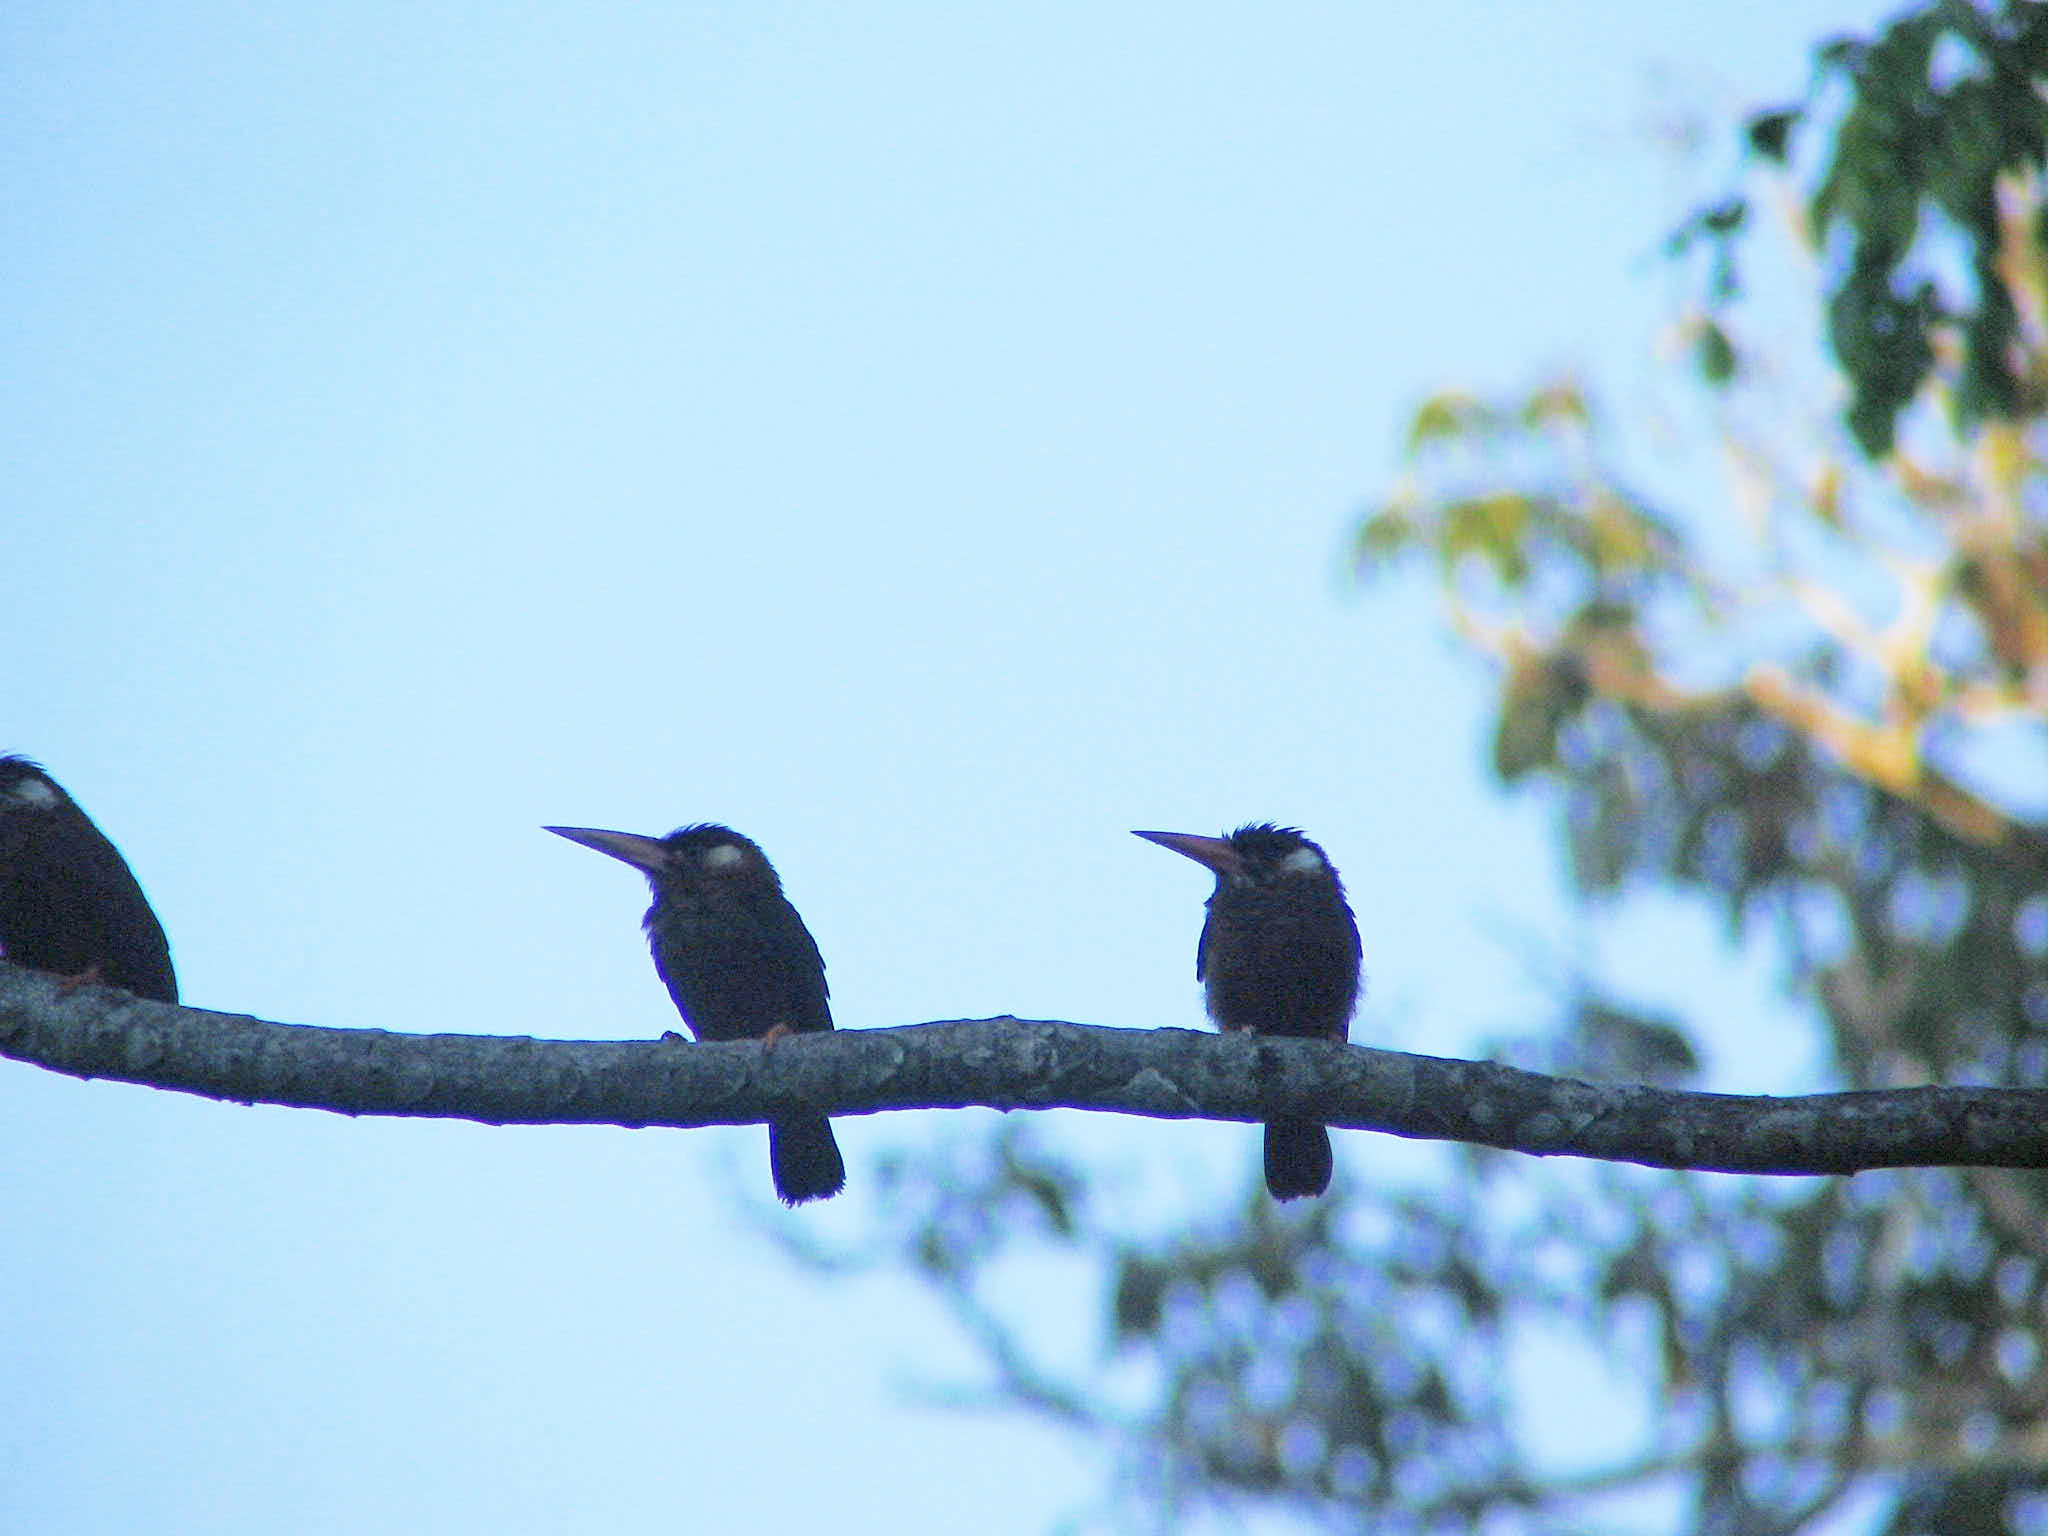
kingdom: Animalia
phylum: Chordata
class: Aves
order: Piciformes
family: Galbulidae
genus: Galbalcyrhynchus
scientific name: Galbalcyrhynchus leucotis
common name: White-eared jacamar
